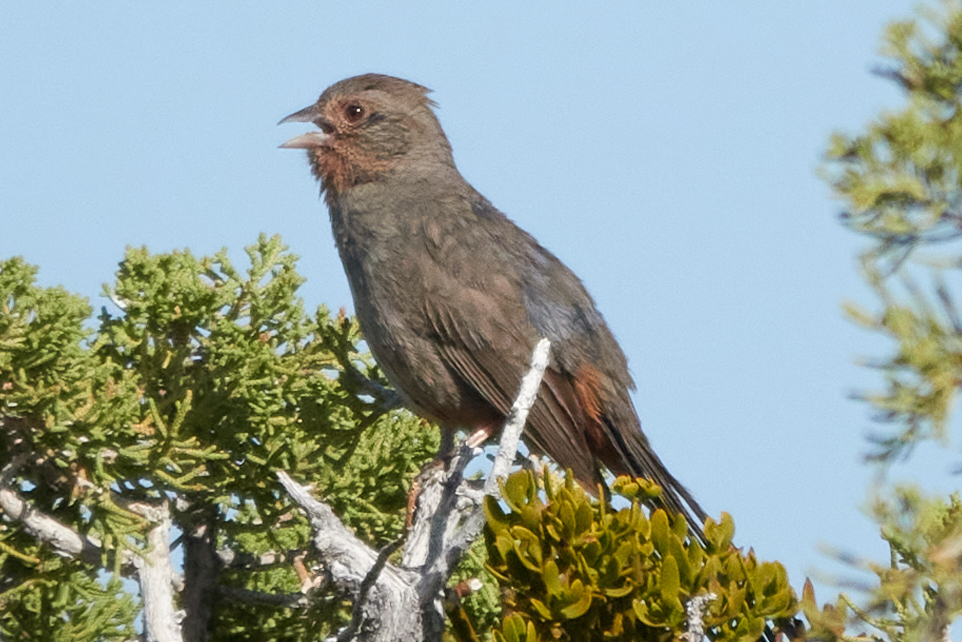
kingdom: Animalia
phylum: Chordata
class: Aves
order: Passeriformes
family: Passerellidae
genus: Melozone
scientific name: Melozone crissalis
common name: California towhee
